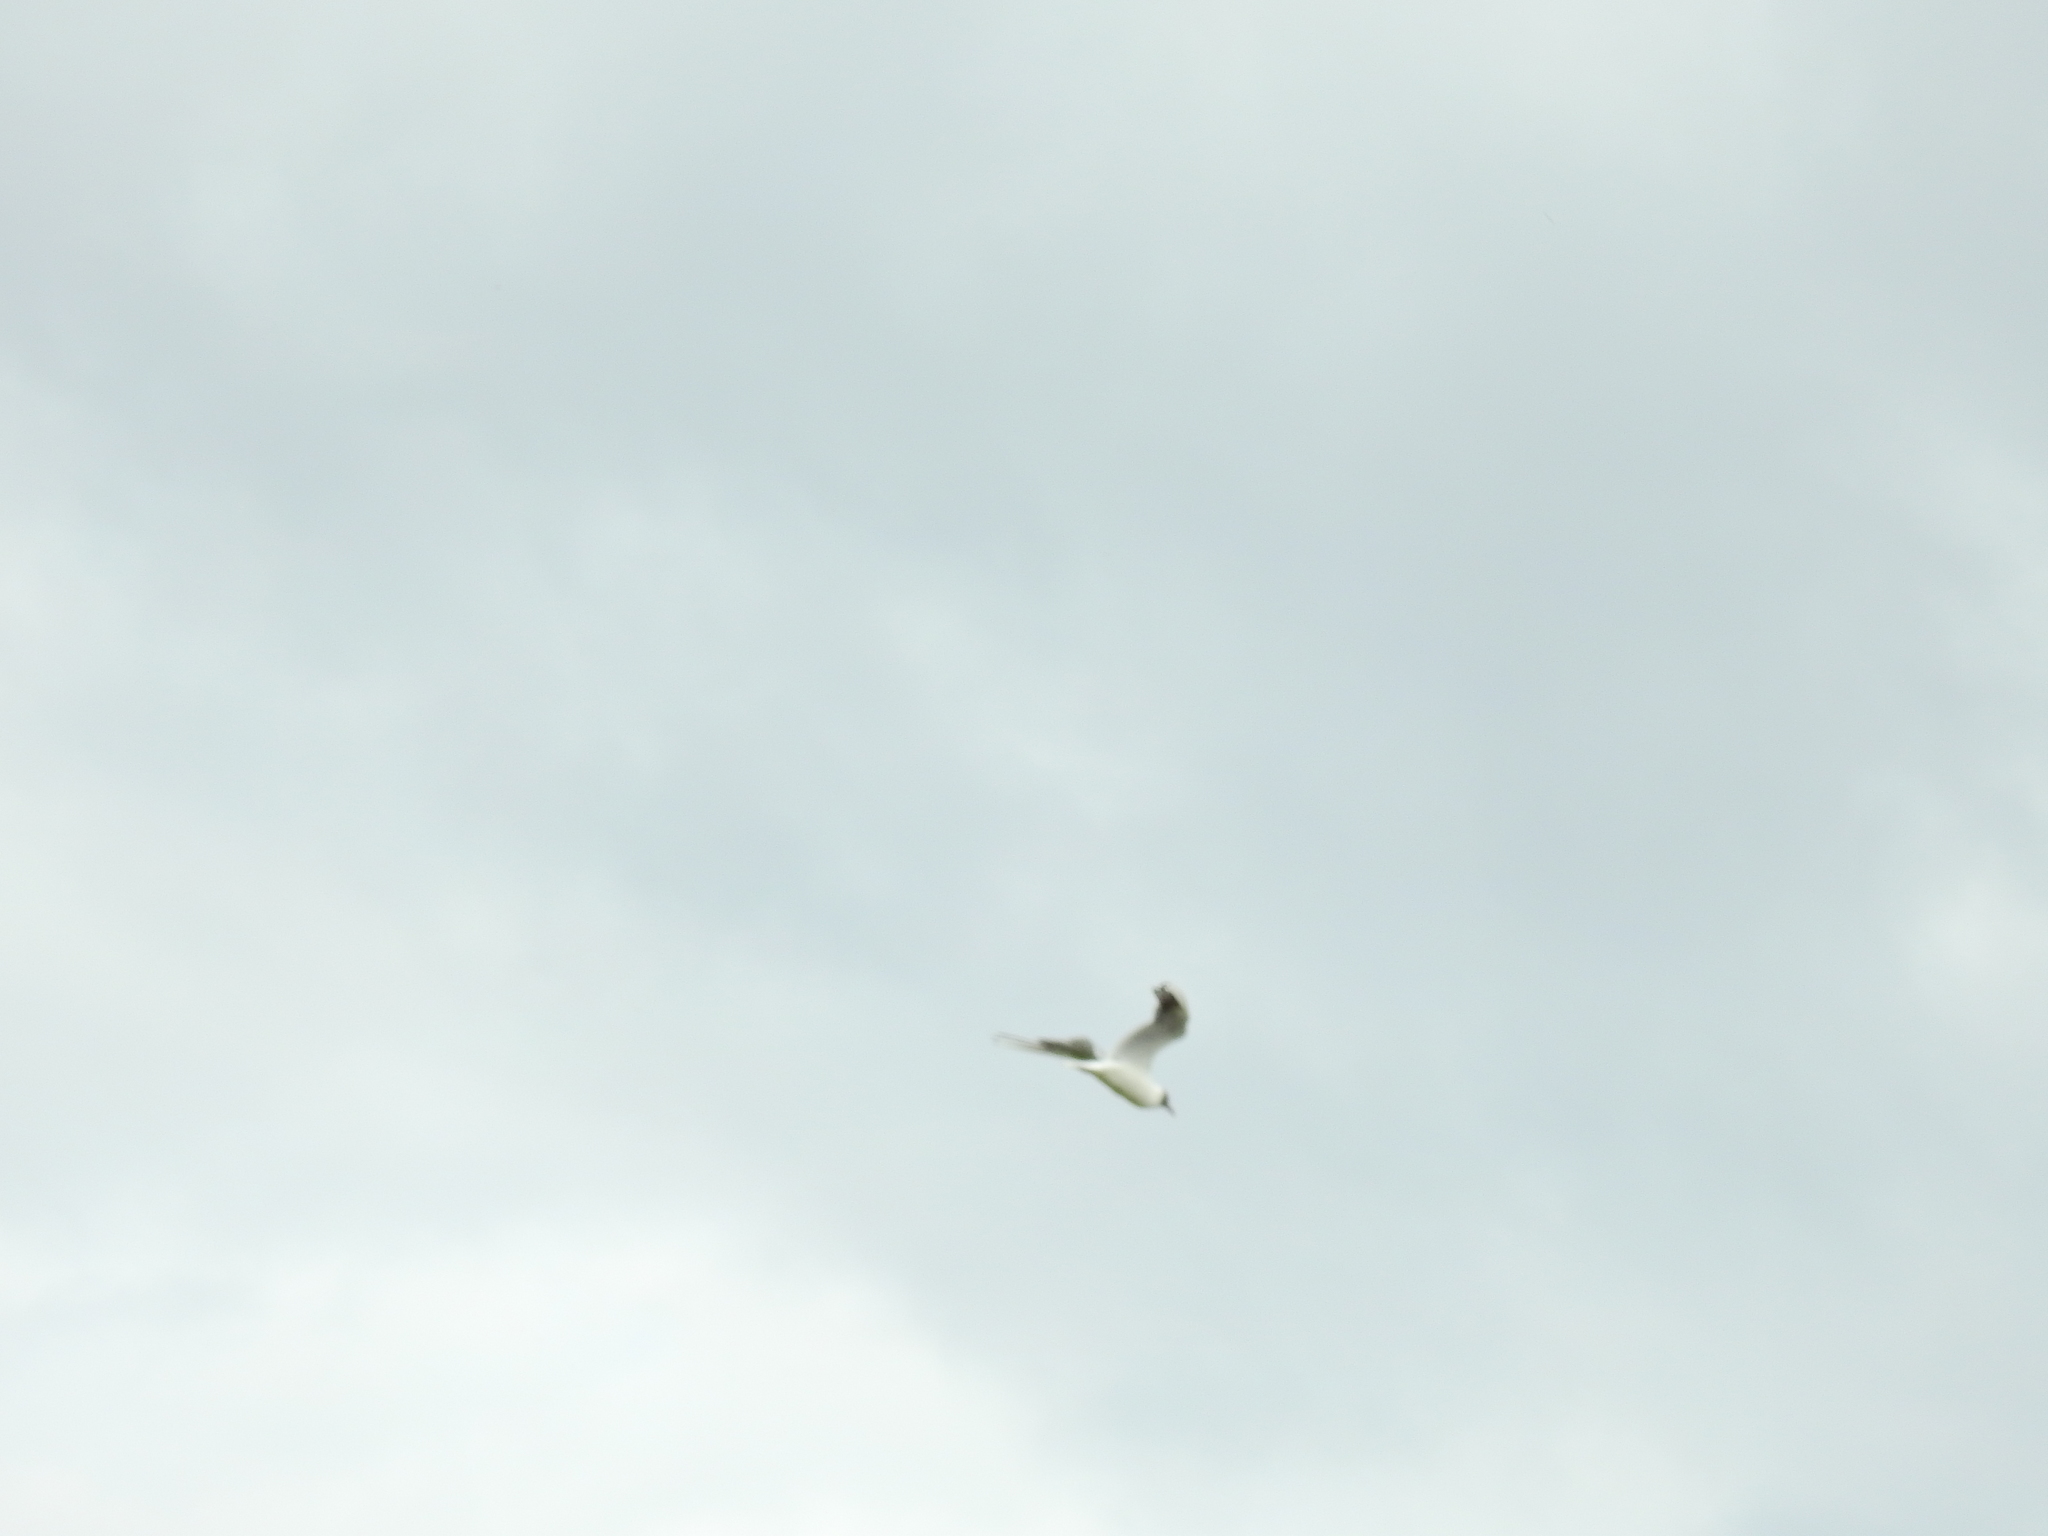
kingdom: Animalia
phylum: Chordata
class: Aves
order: Charadriiformes
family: Laridae
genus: Chroicocephalus
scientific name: Chroicocephalus ridibundus
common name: Black-headed gull
